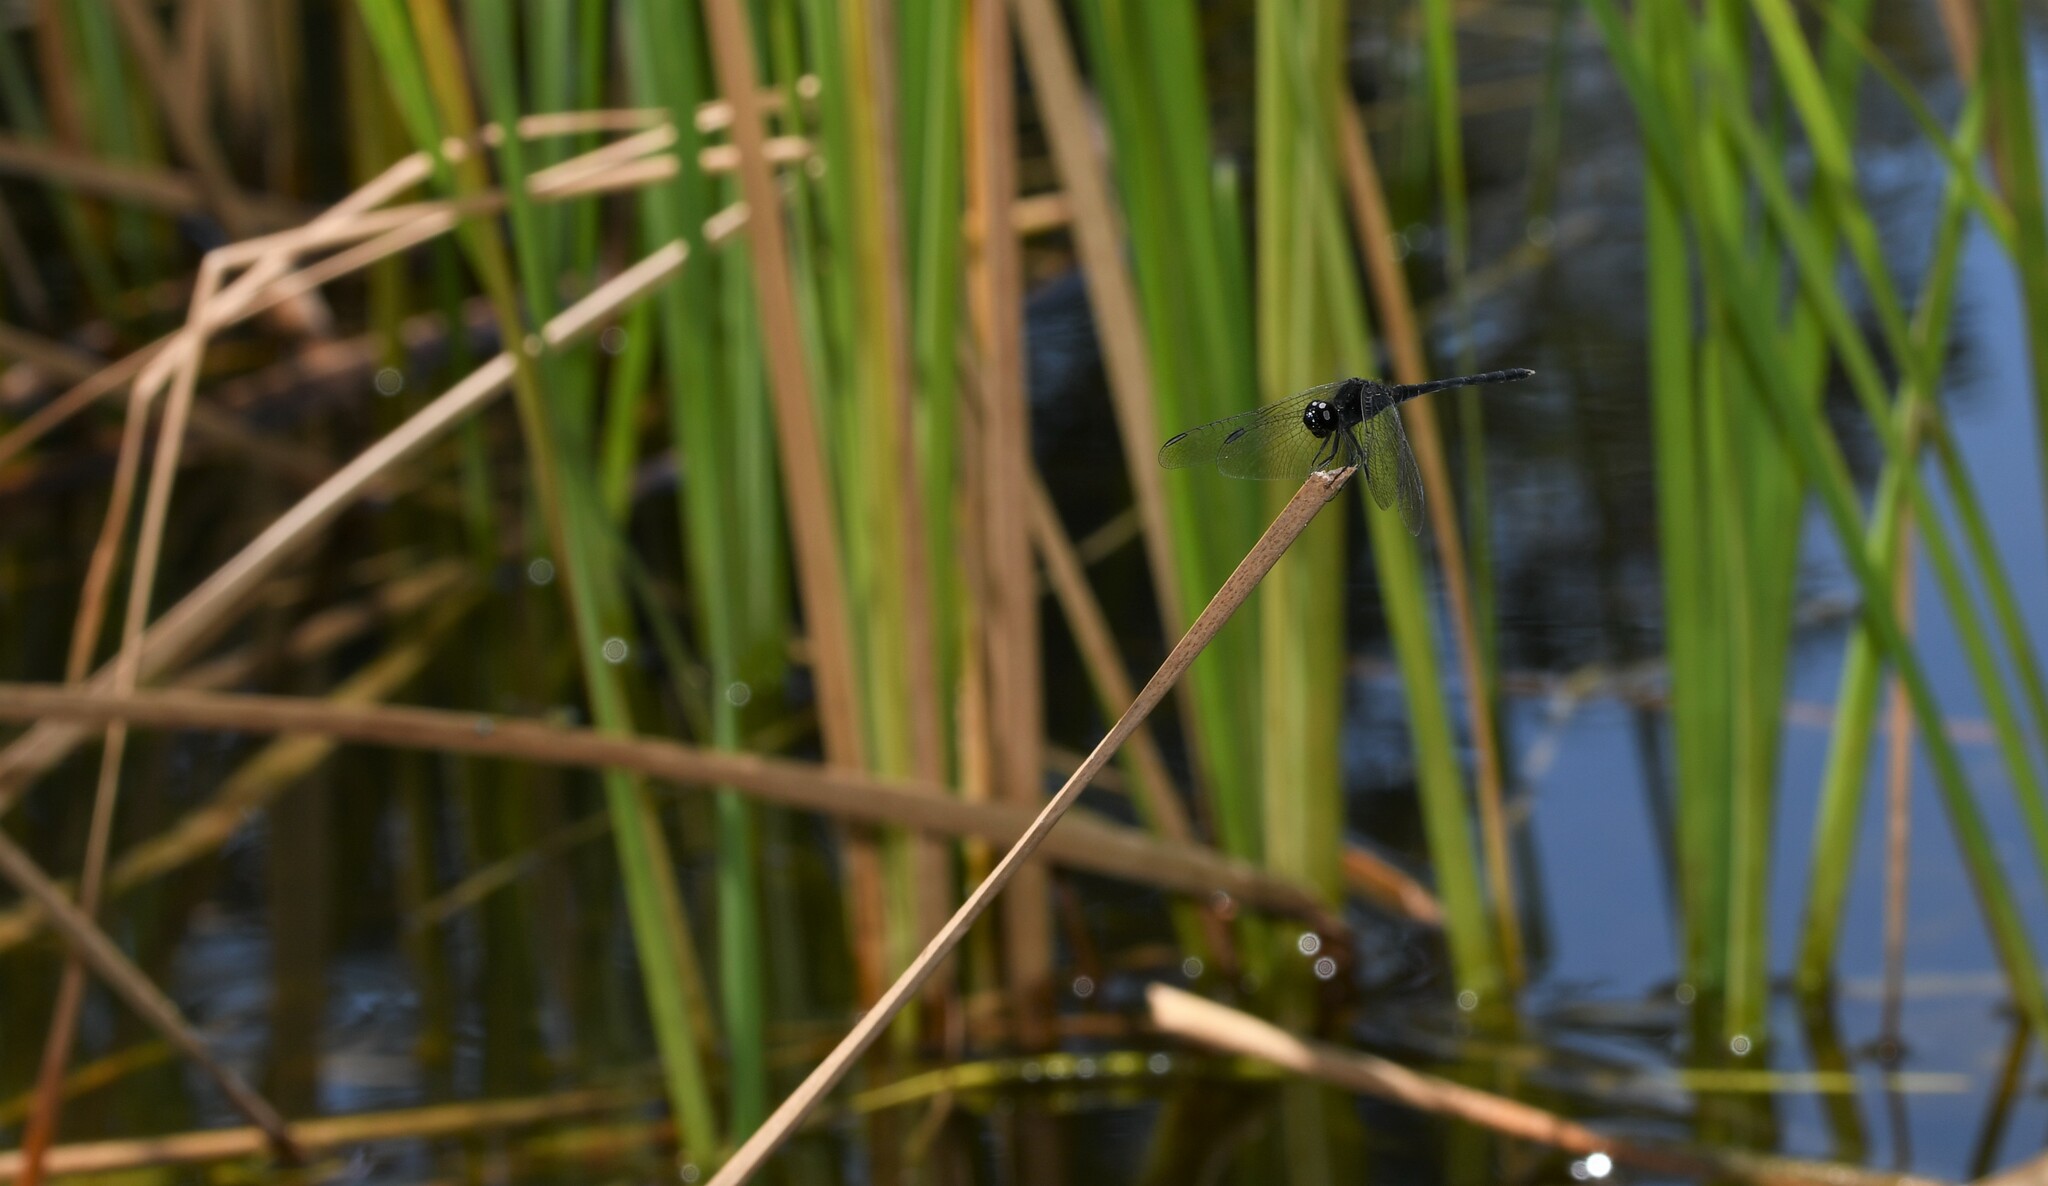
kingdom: Animalia
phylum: Arthropoda
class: Insecta
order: Odonata
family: Libellulidae
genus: Diplacodes
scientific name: Diplacodes lefebvrii
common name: Black percher
